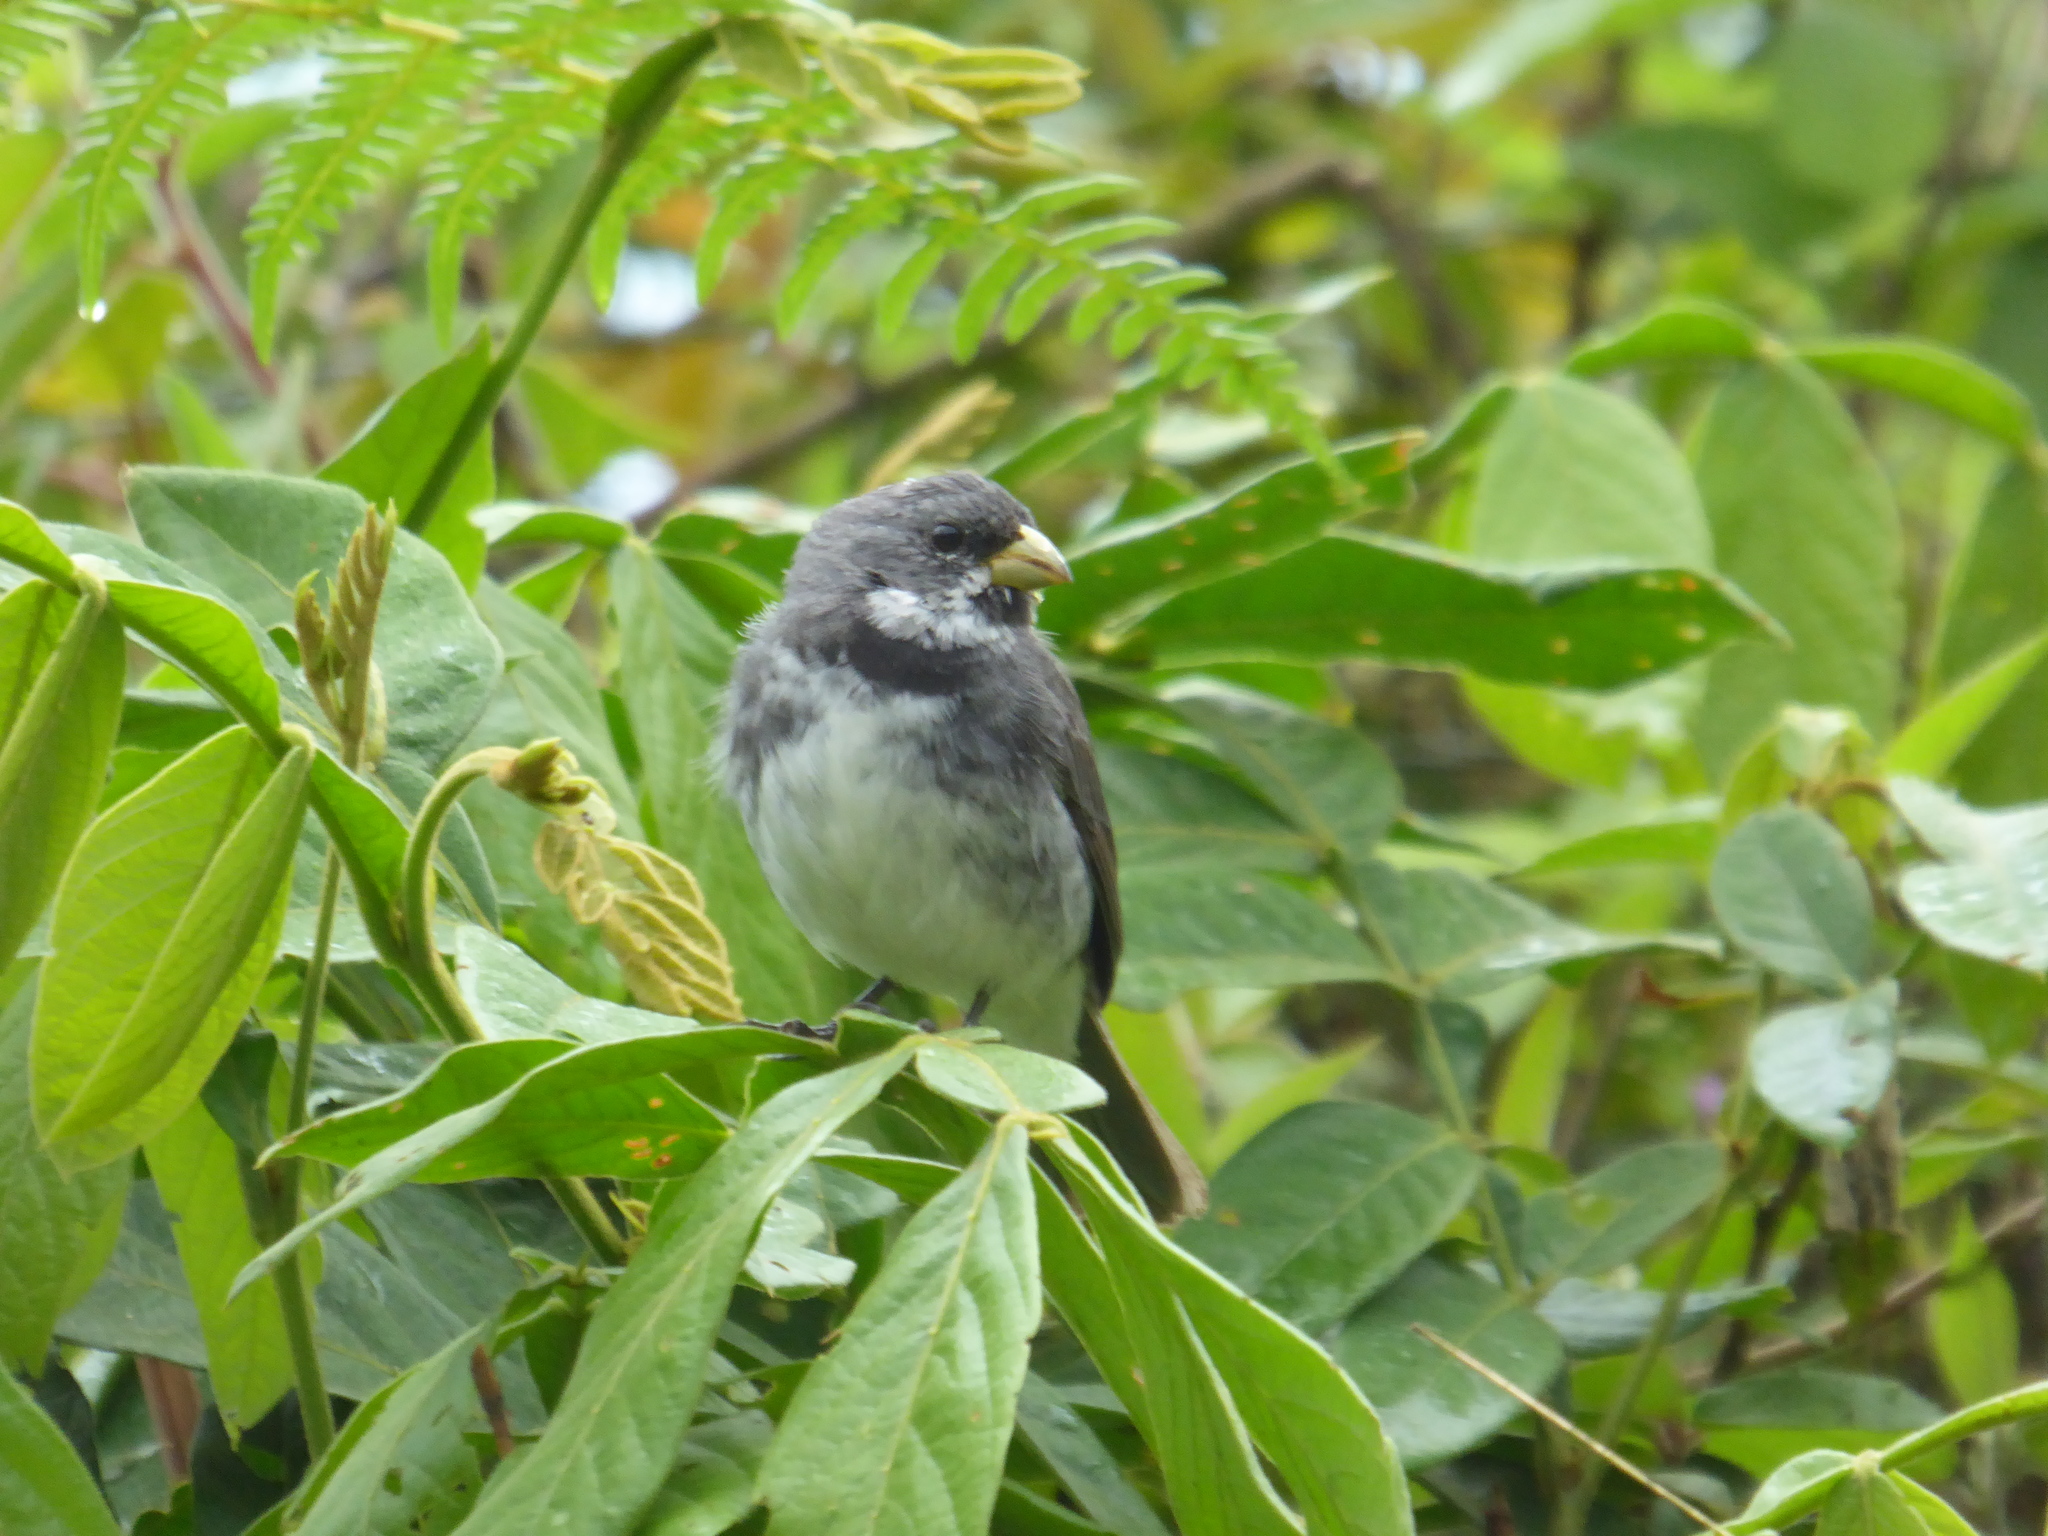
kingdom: Animalia
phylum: Chordata
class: Aves
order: Passeriformes
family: Thraupidae
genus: Sporophila
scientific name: Sporophila caerulescens
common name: Double-collared seedeater
